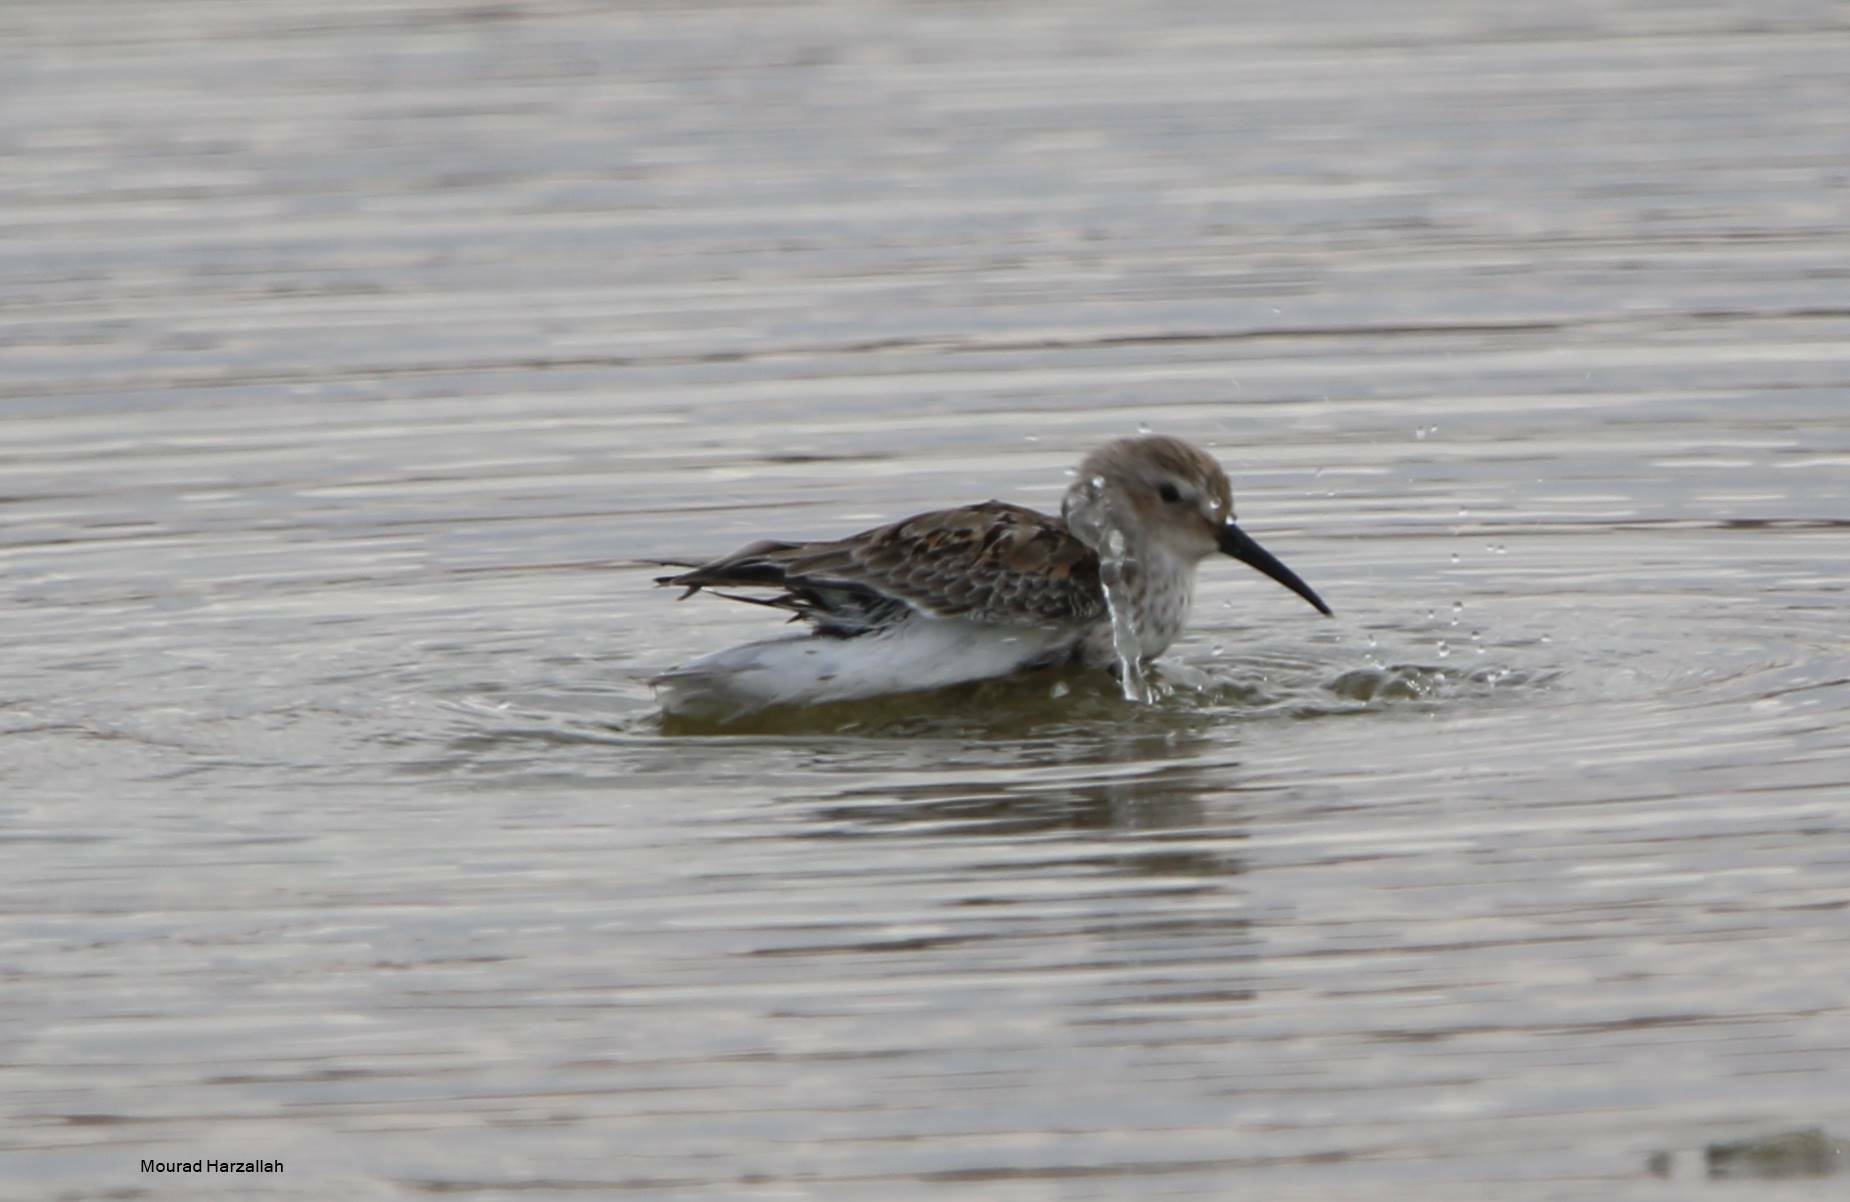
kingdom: Animalia
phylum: Chordata
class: Aves
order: Charadriiformes
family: Scolopacidae
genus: Calidris
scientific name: Calidris alpina
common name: Dunlin
